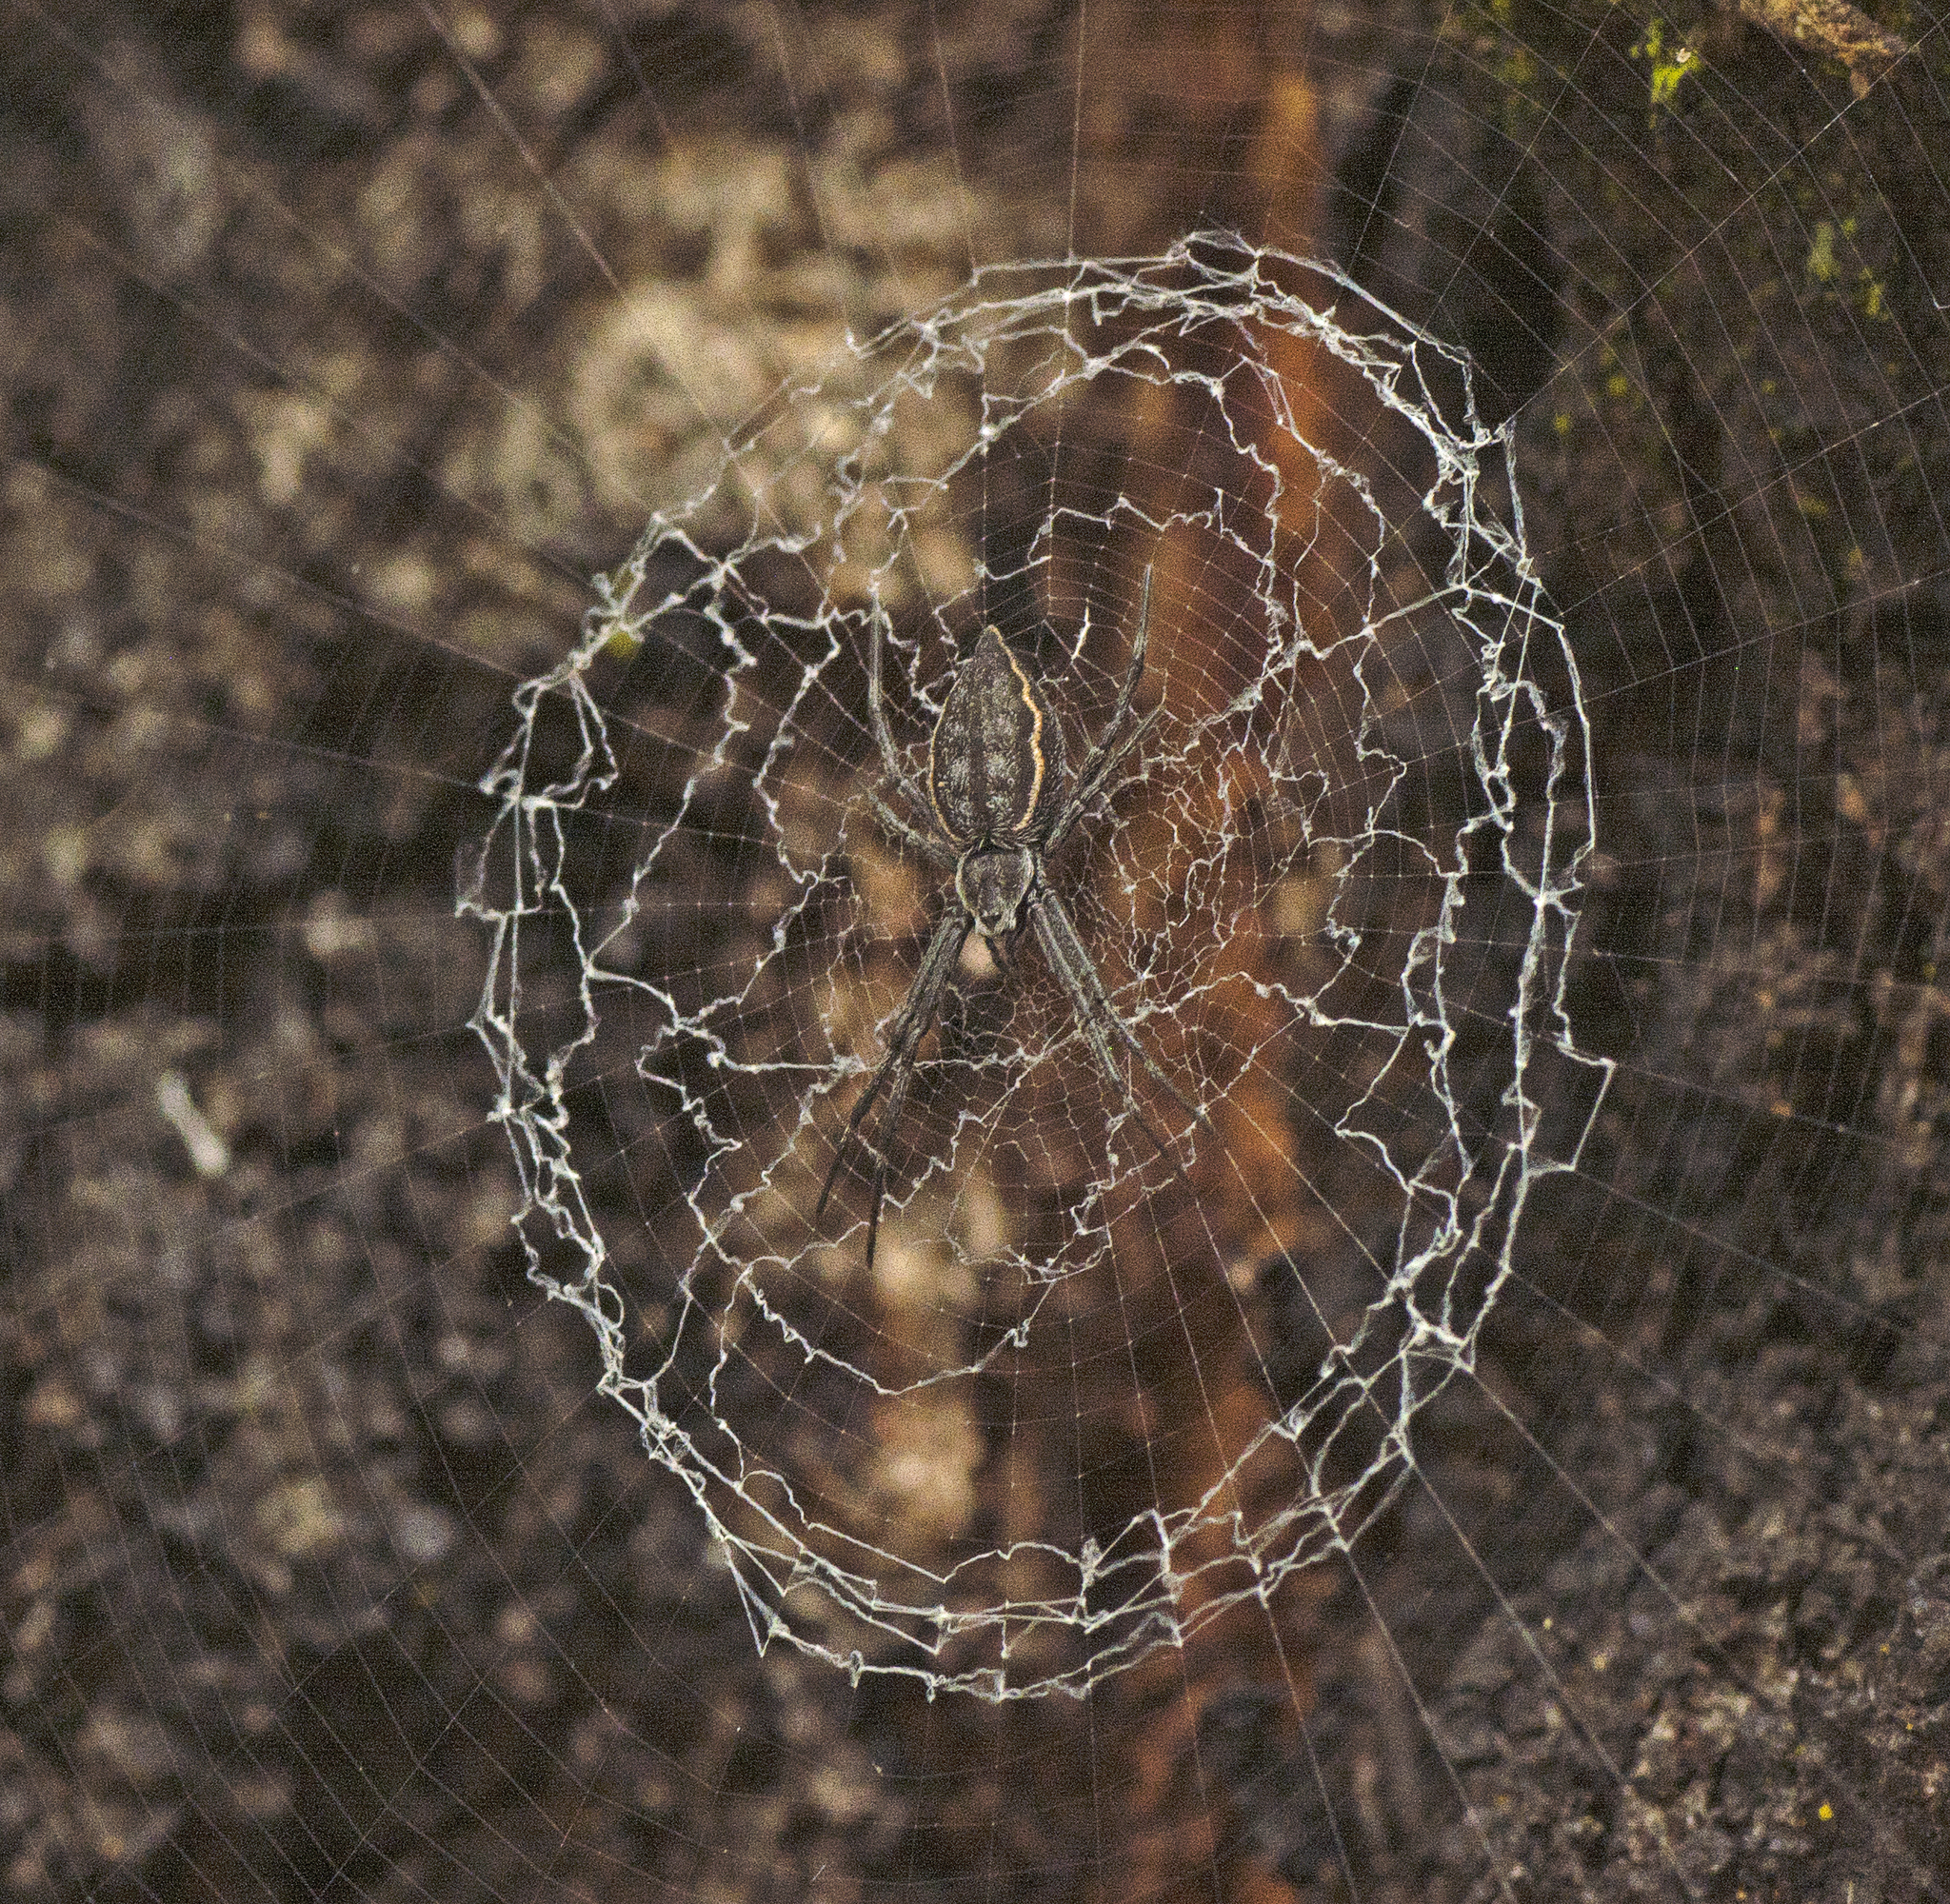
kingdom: Animalia
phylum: Arthropoda
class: Arachnida
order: Araneae
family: Araneidae
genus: Argiope
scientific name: Argiope ocyaloides
